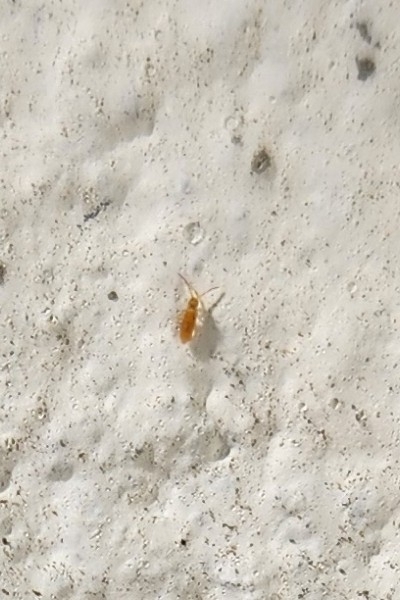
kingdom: Animalia
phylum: Arthropoda
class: Collembola
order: Entomobryomorpha
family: Entomobryidae
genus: Entomobrya
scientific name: Entomobrya atrocincta
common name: Springtail
